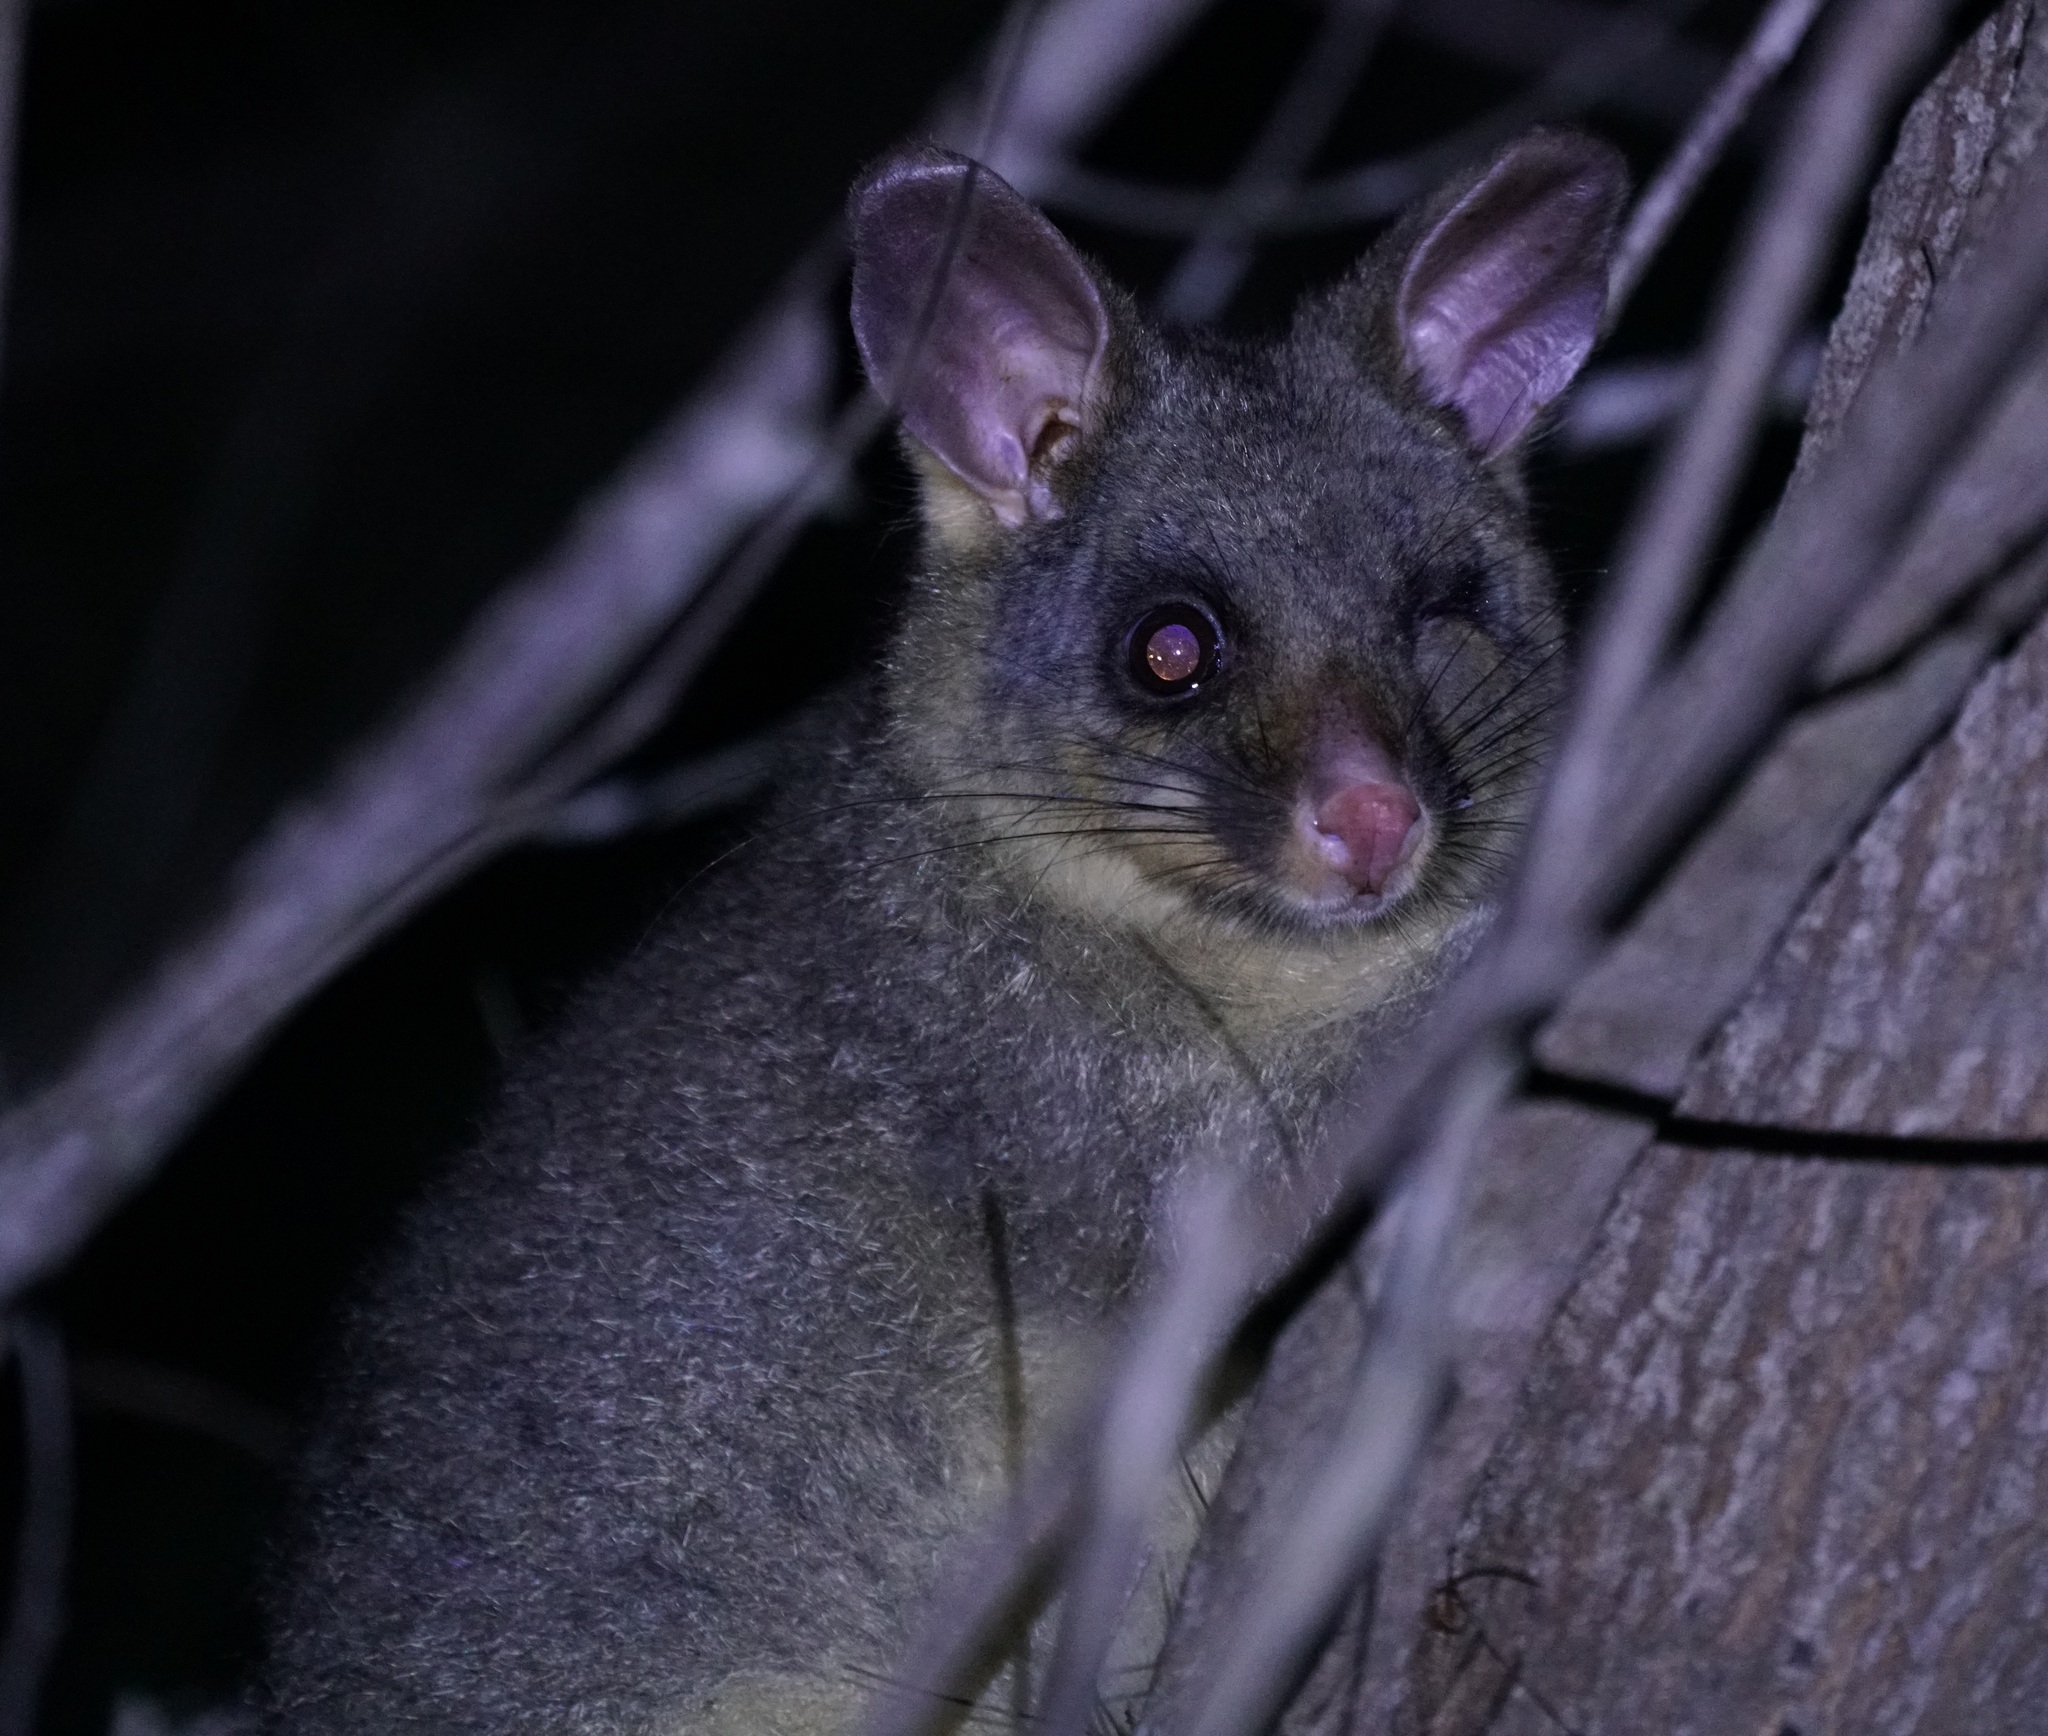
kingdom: Animalia
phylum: Chordata
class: Mammalia
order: Diprotodontia
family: Phalangeridae
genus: Trichosurus
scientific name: Trichosurus vulpecula
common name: Common brushtail
